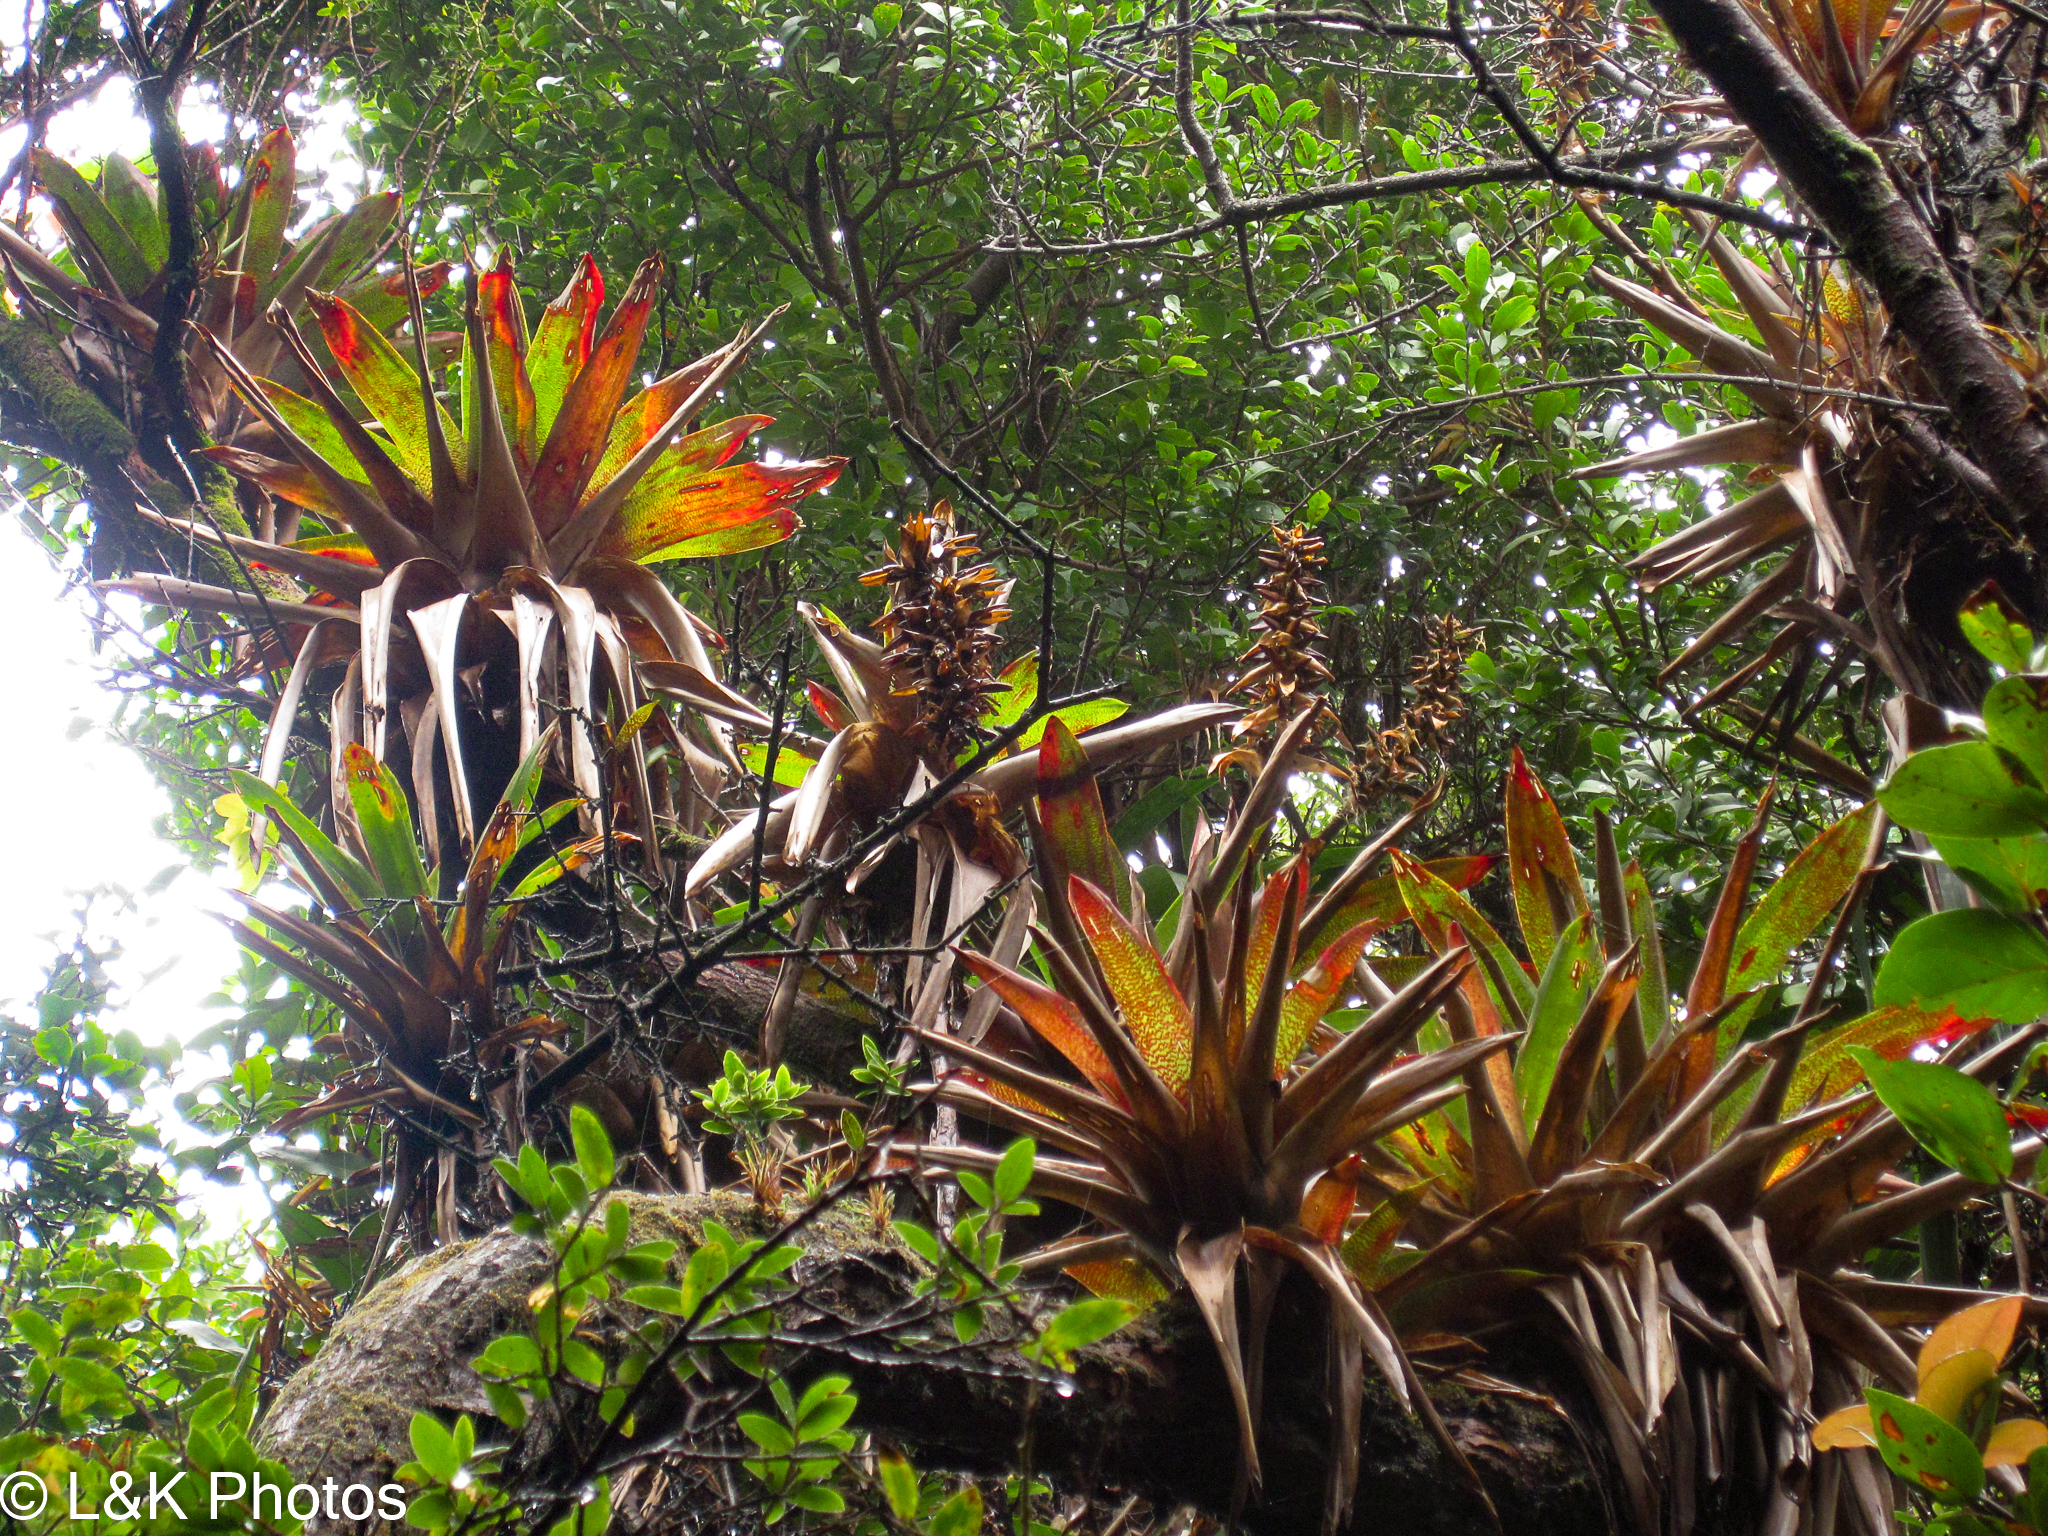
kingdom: Plantae
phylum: Tracheophyta
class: Liliopsida
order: Poales
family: Bromeliaceae
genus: Werauhia
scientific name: Werauhia ororiensis
